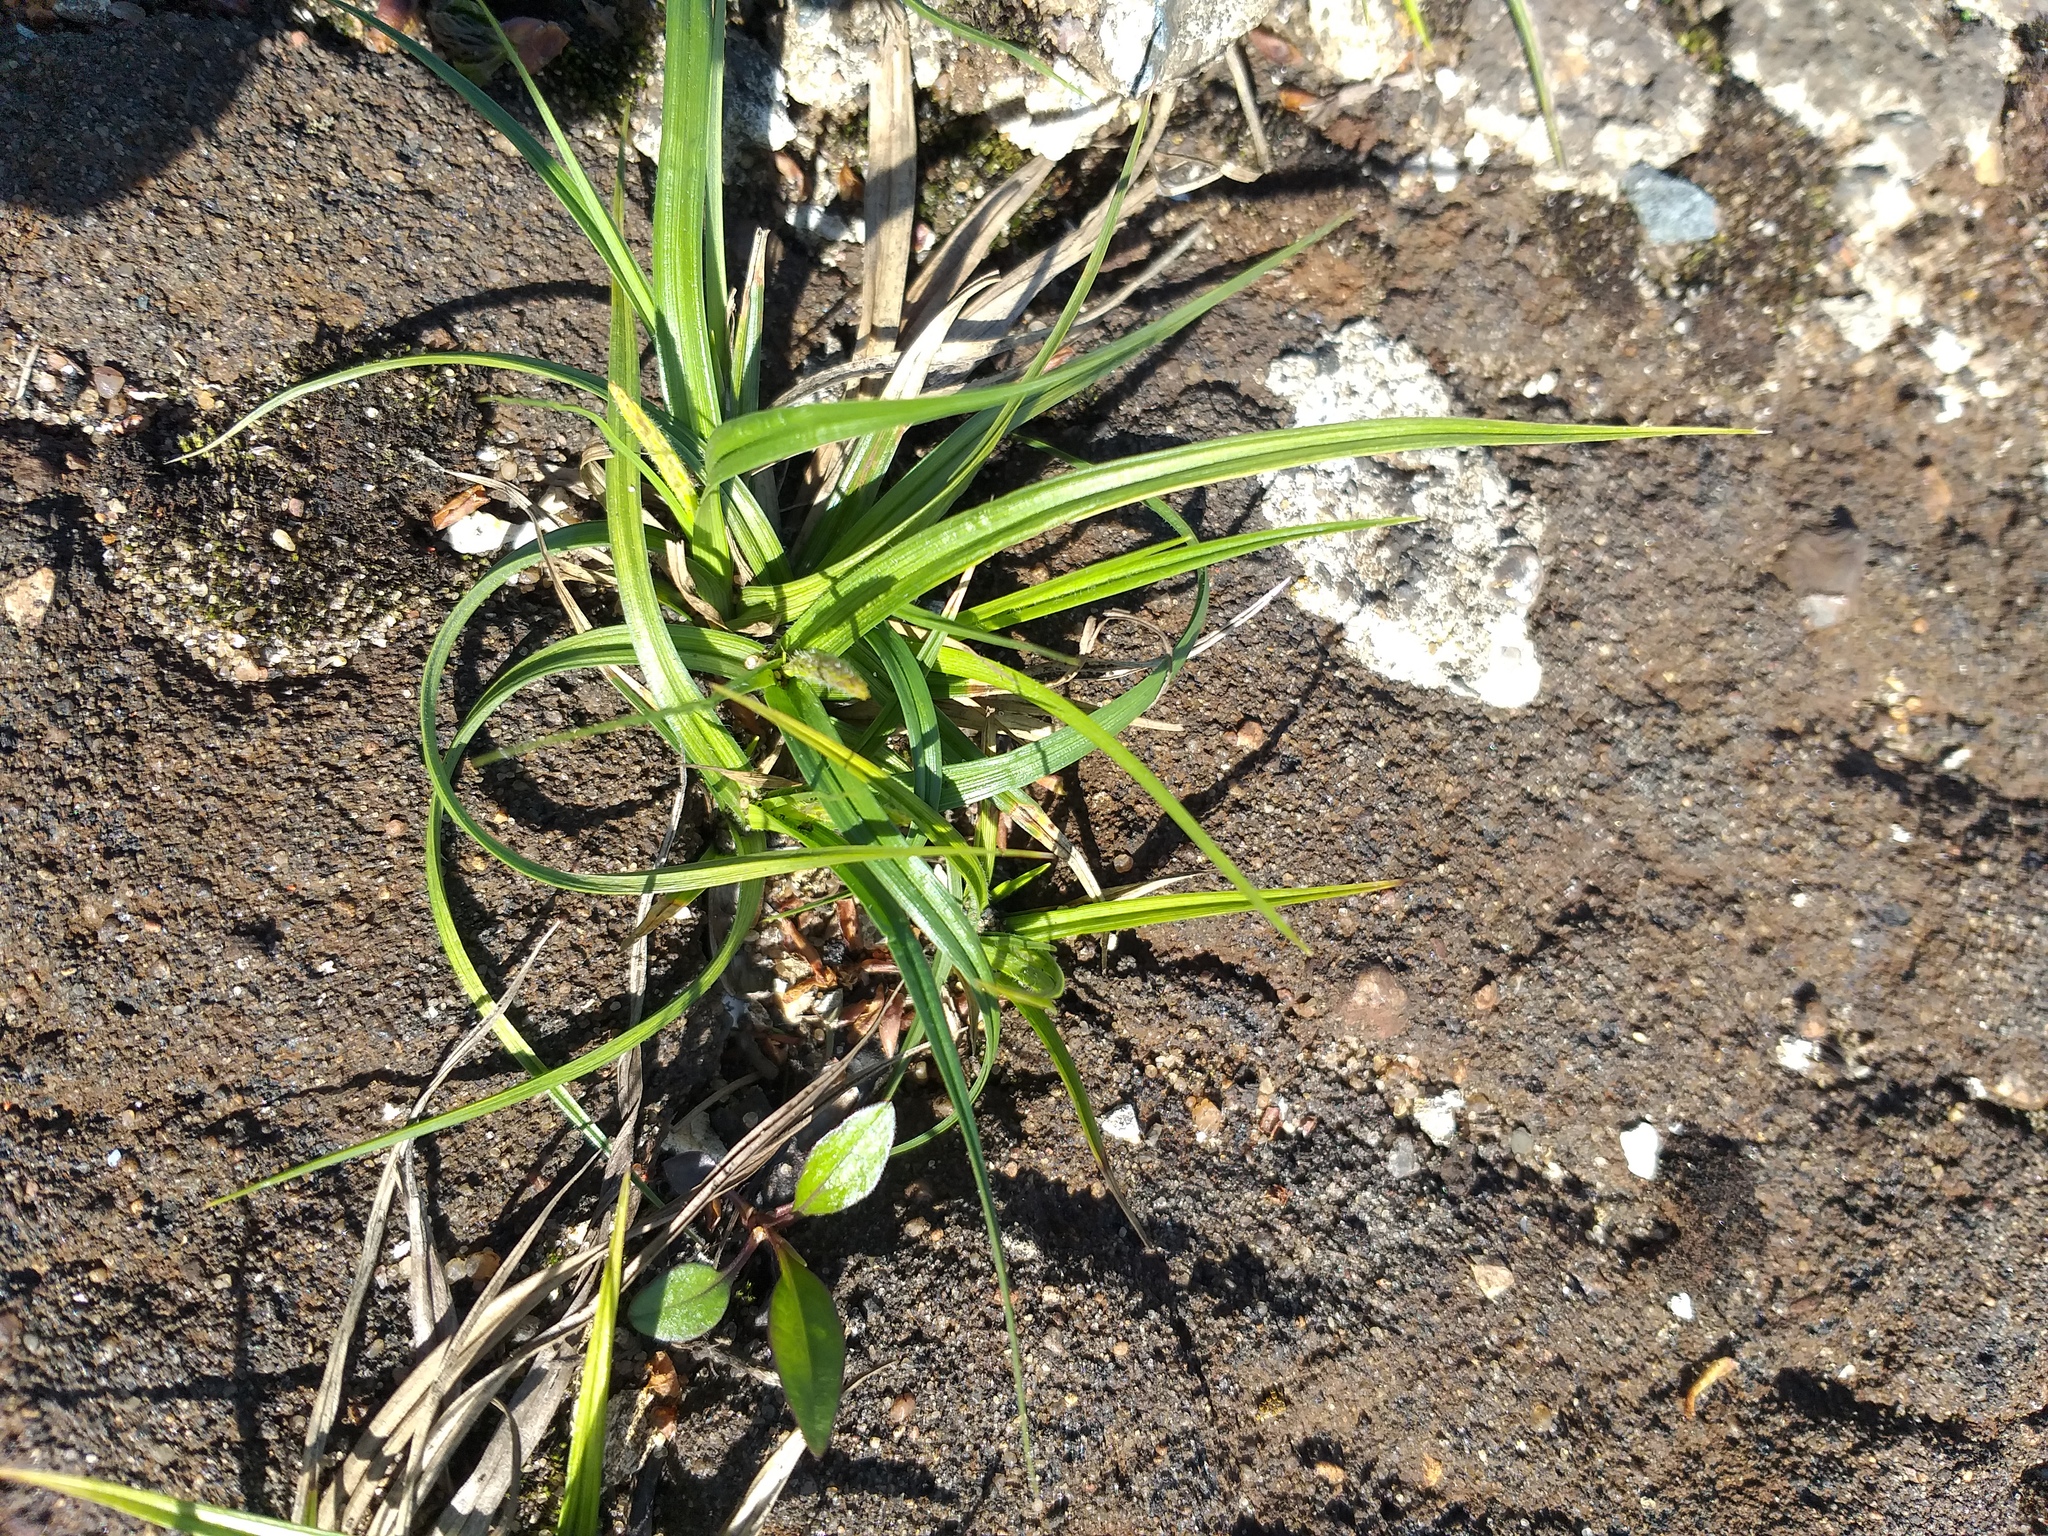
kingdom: Plantae
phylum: Tracheophyta
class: Liliopsida
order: Poales
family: Cyperaceae
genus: Carex
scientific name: Carex hirta
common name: Hairy sedge
